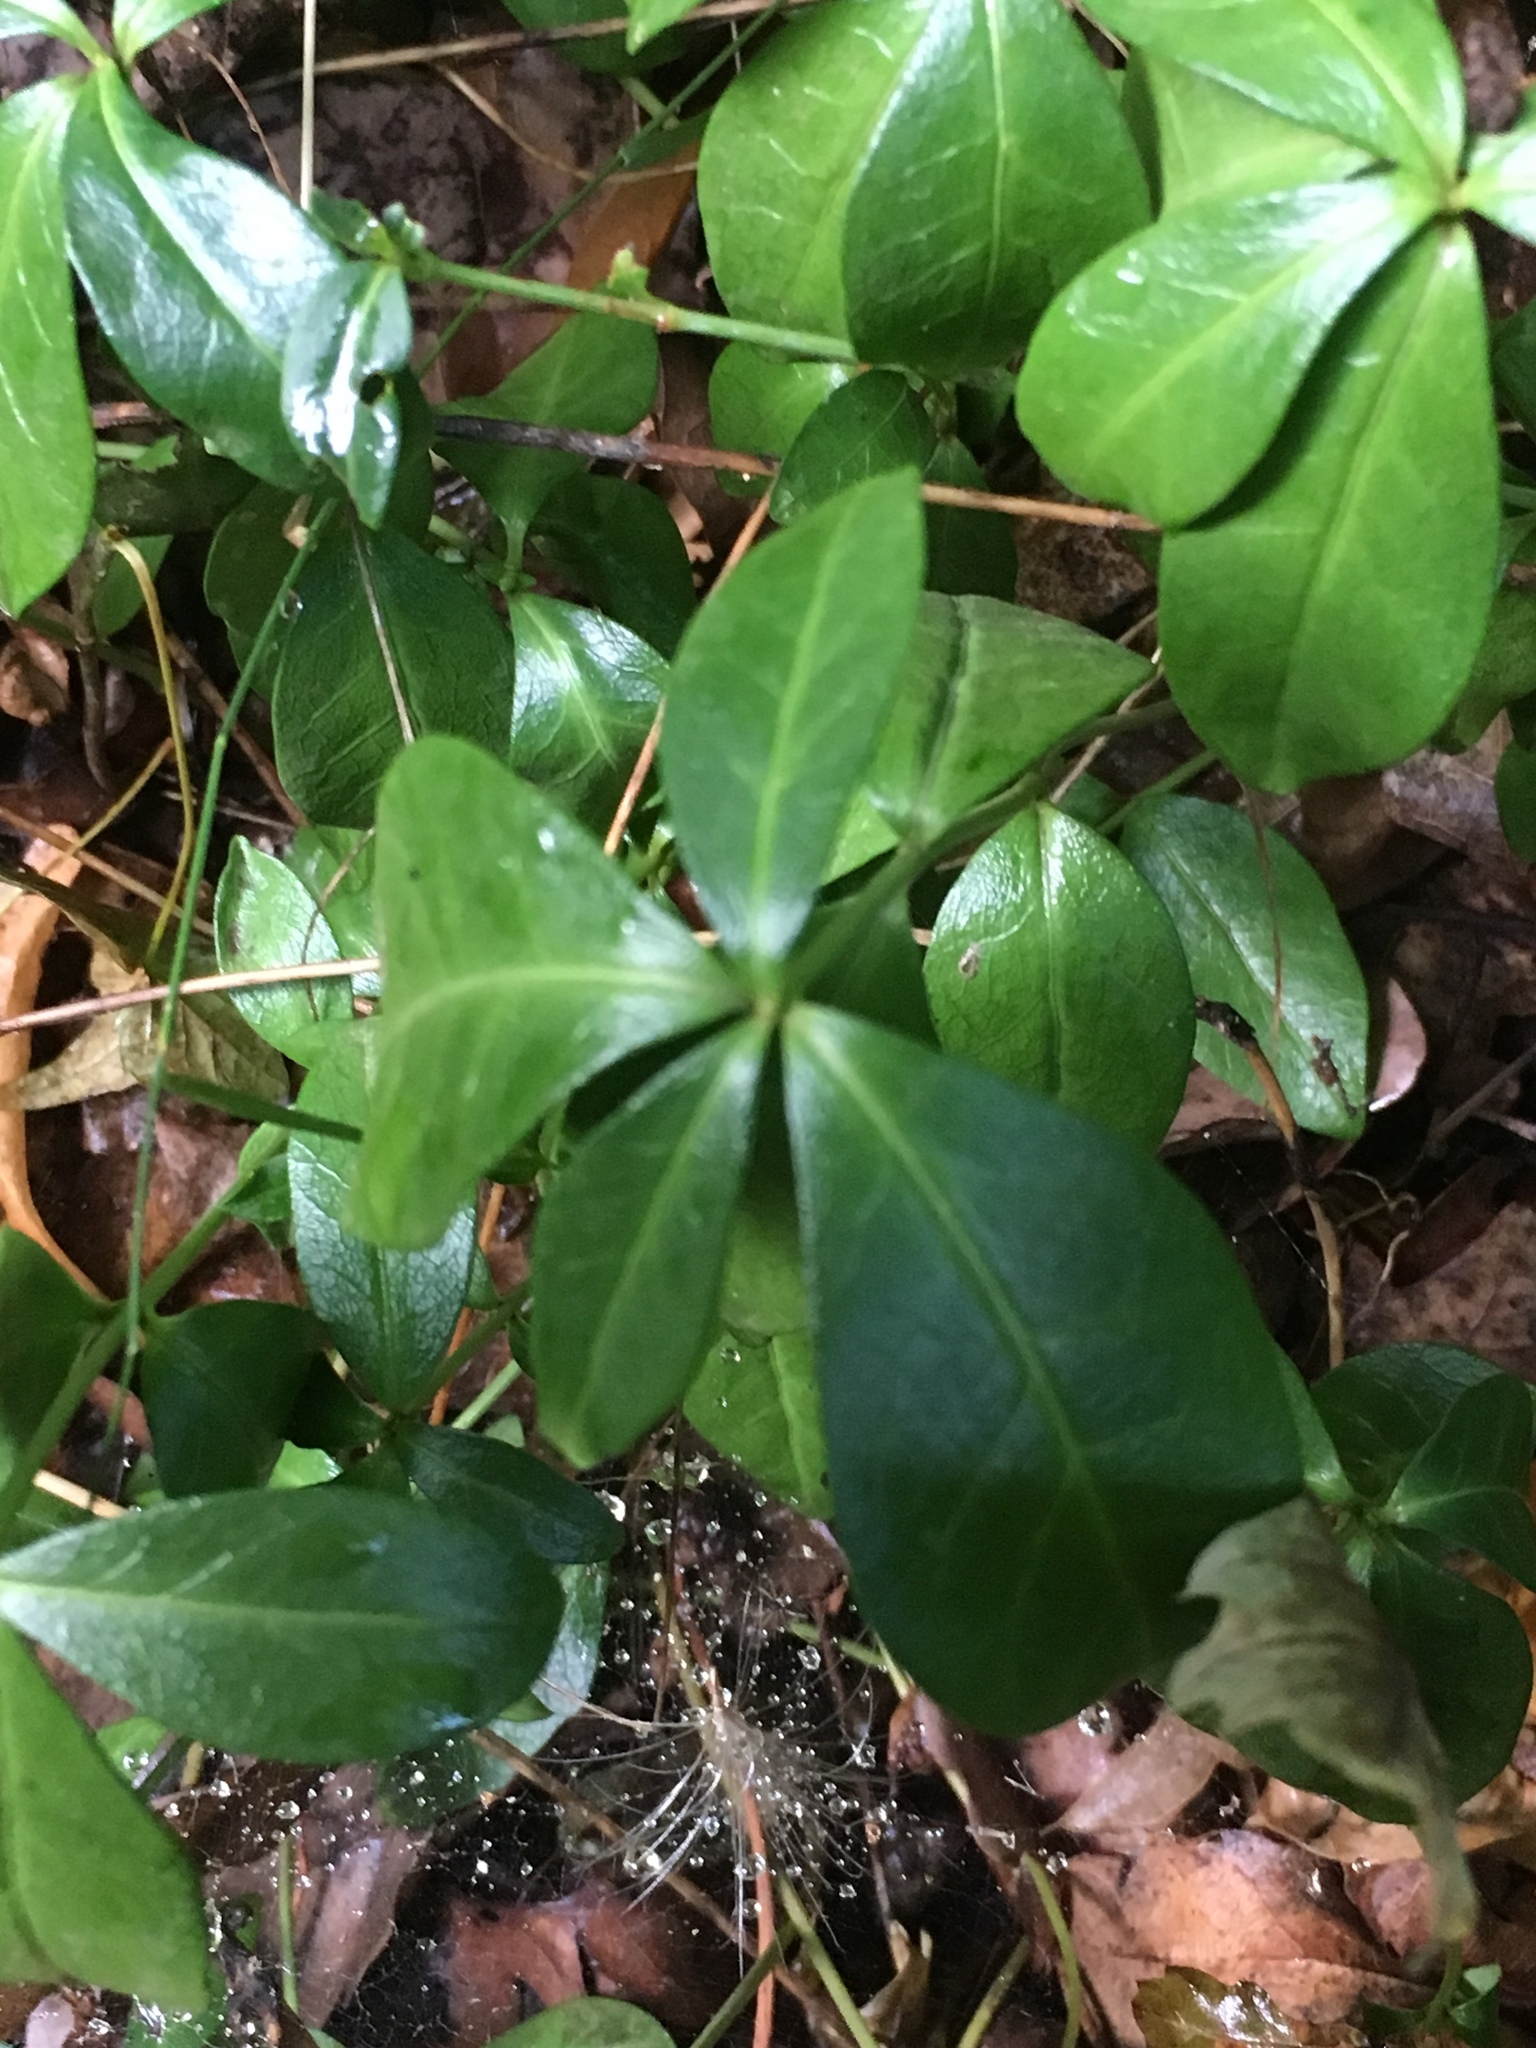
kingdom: Plantae
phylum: Tracheophyta
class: Magnoliopsida
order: Gentianales
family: Apocynaceae
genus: Vinca
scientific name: Vinca minor
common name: Lesser periwinkle
